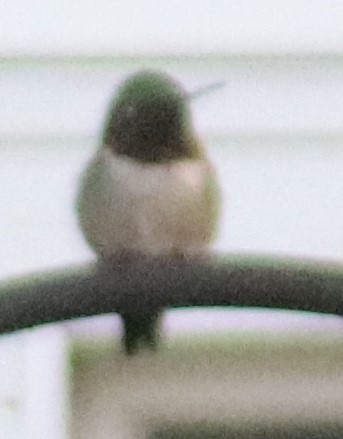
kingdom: Animalia
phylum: Chordata
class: Aves
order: Apodiformes
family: Trochilidae
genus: Archilochus
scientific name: Archilochus colubris
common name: Ruby-throated hummingbird
